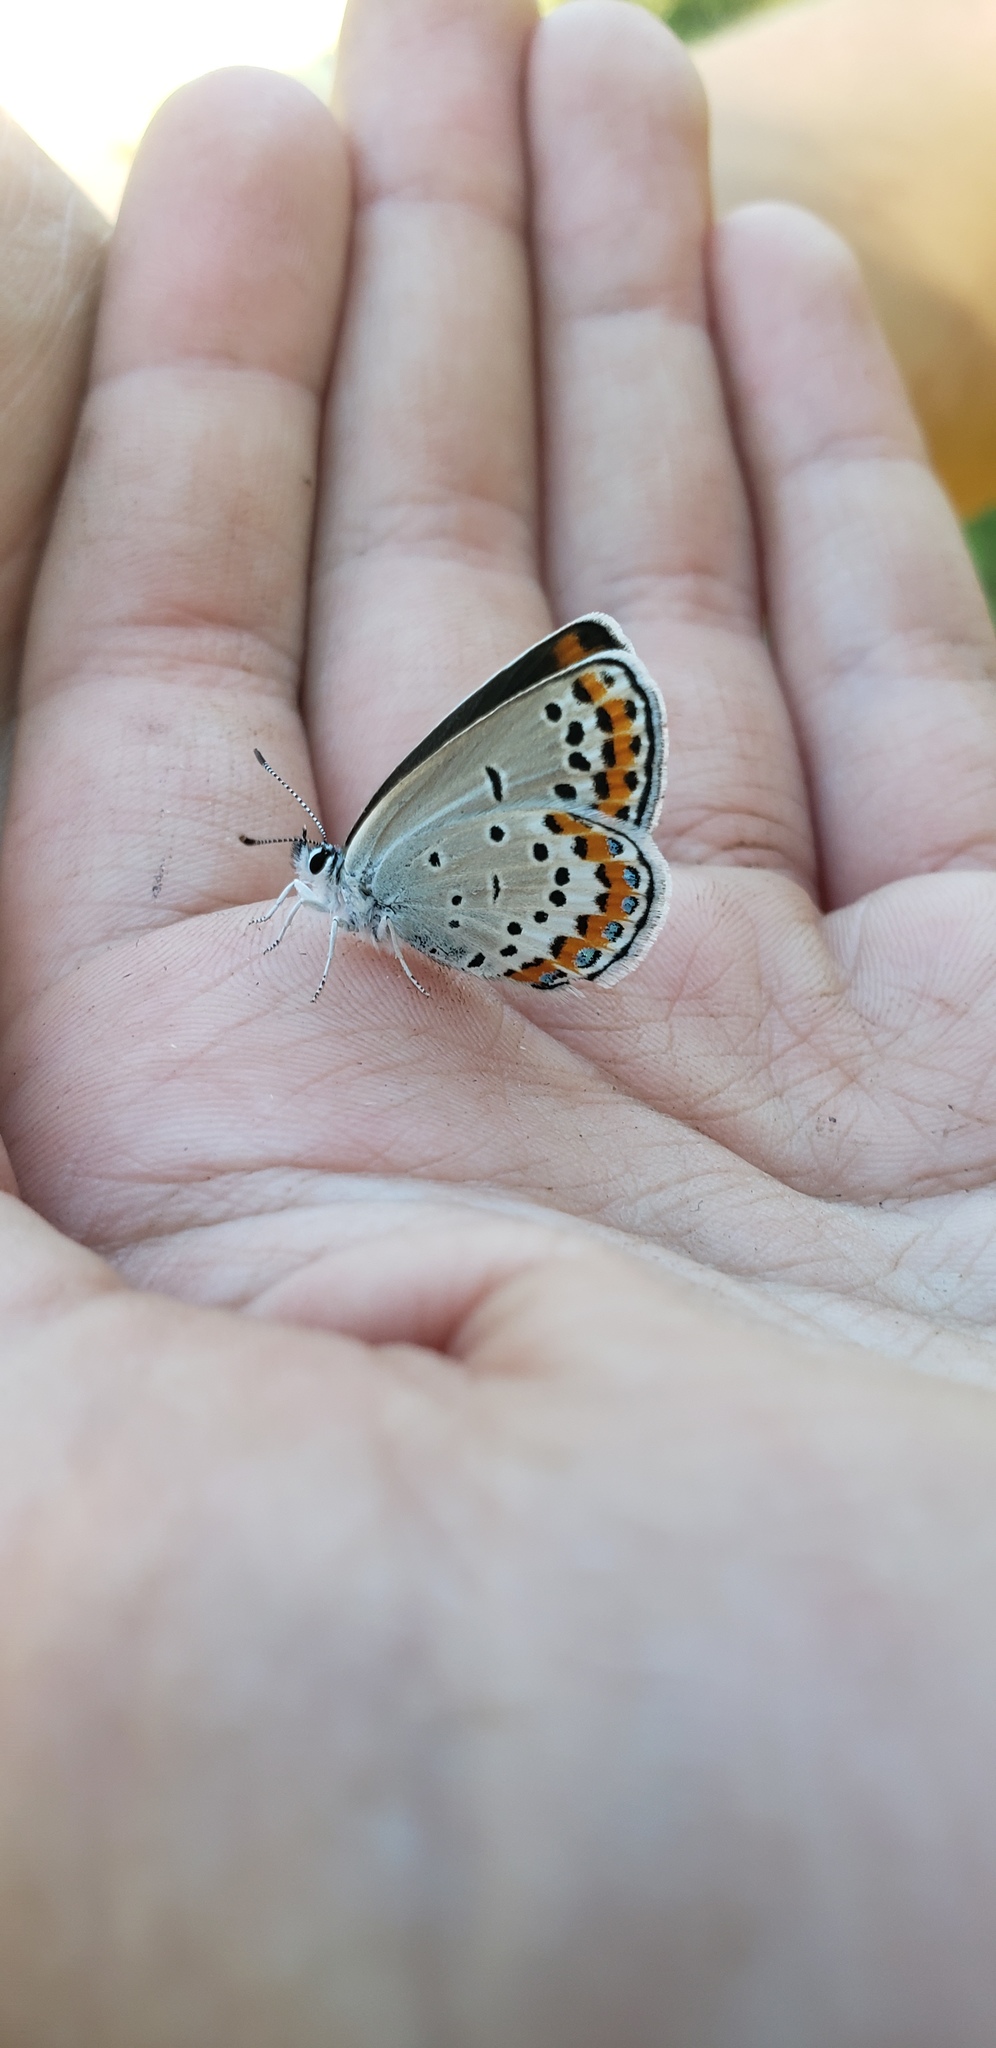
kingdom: Animalia
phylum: Arthropoda
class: Insecta
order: Lepidoptera
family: Lycaenidae
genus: Lycaeides
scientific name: Lycaeides melissa
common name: Melissa blue
